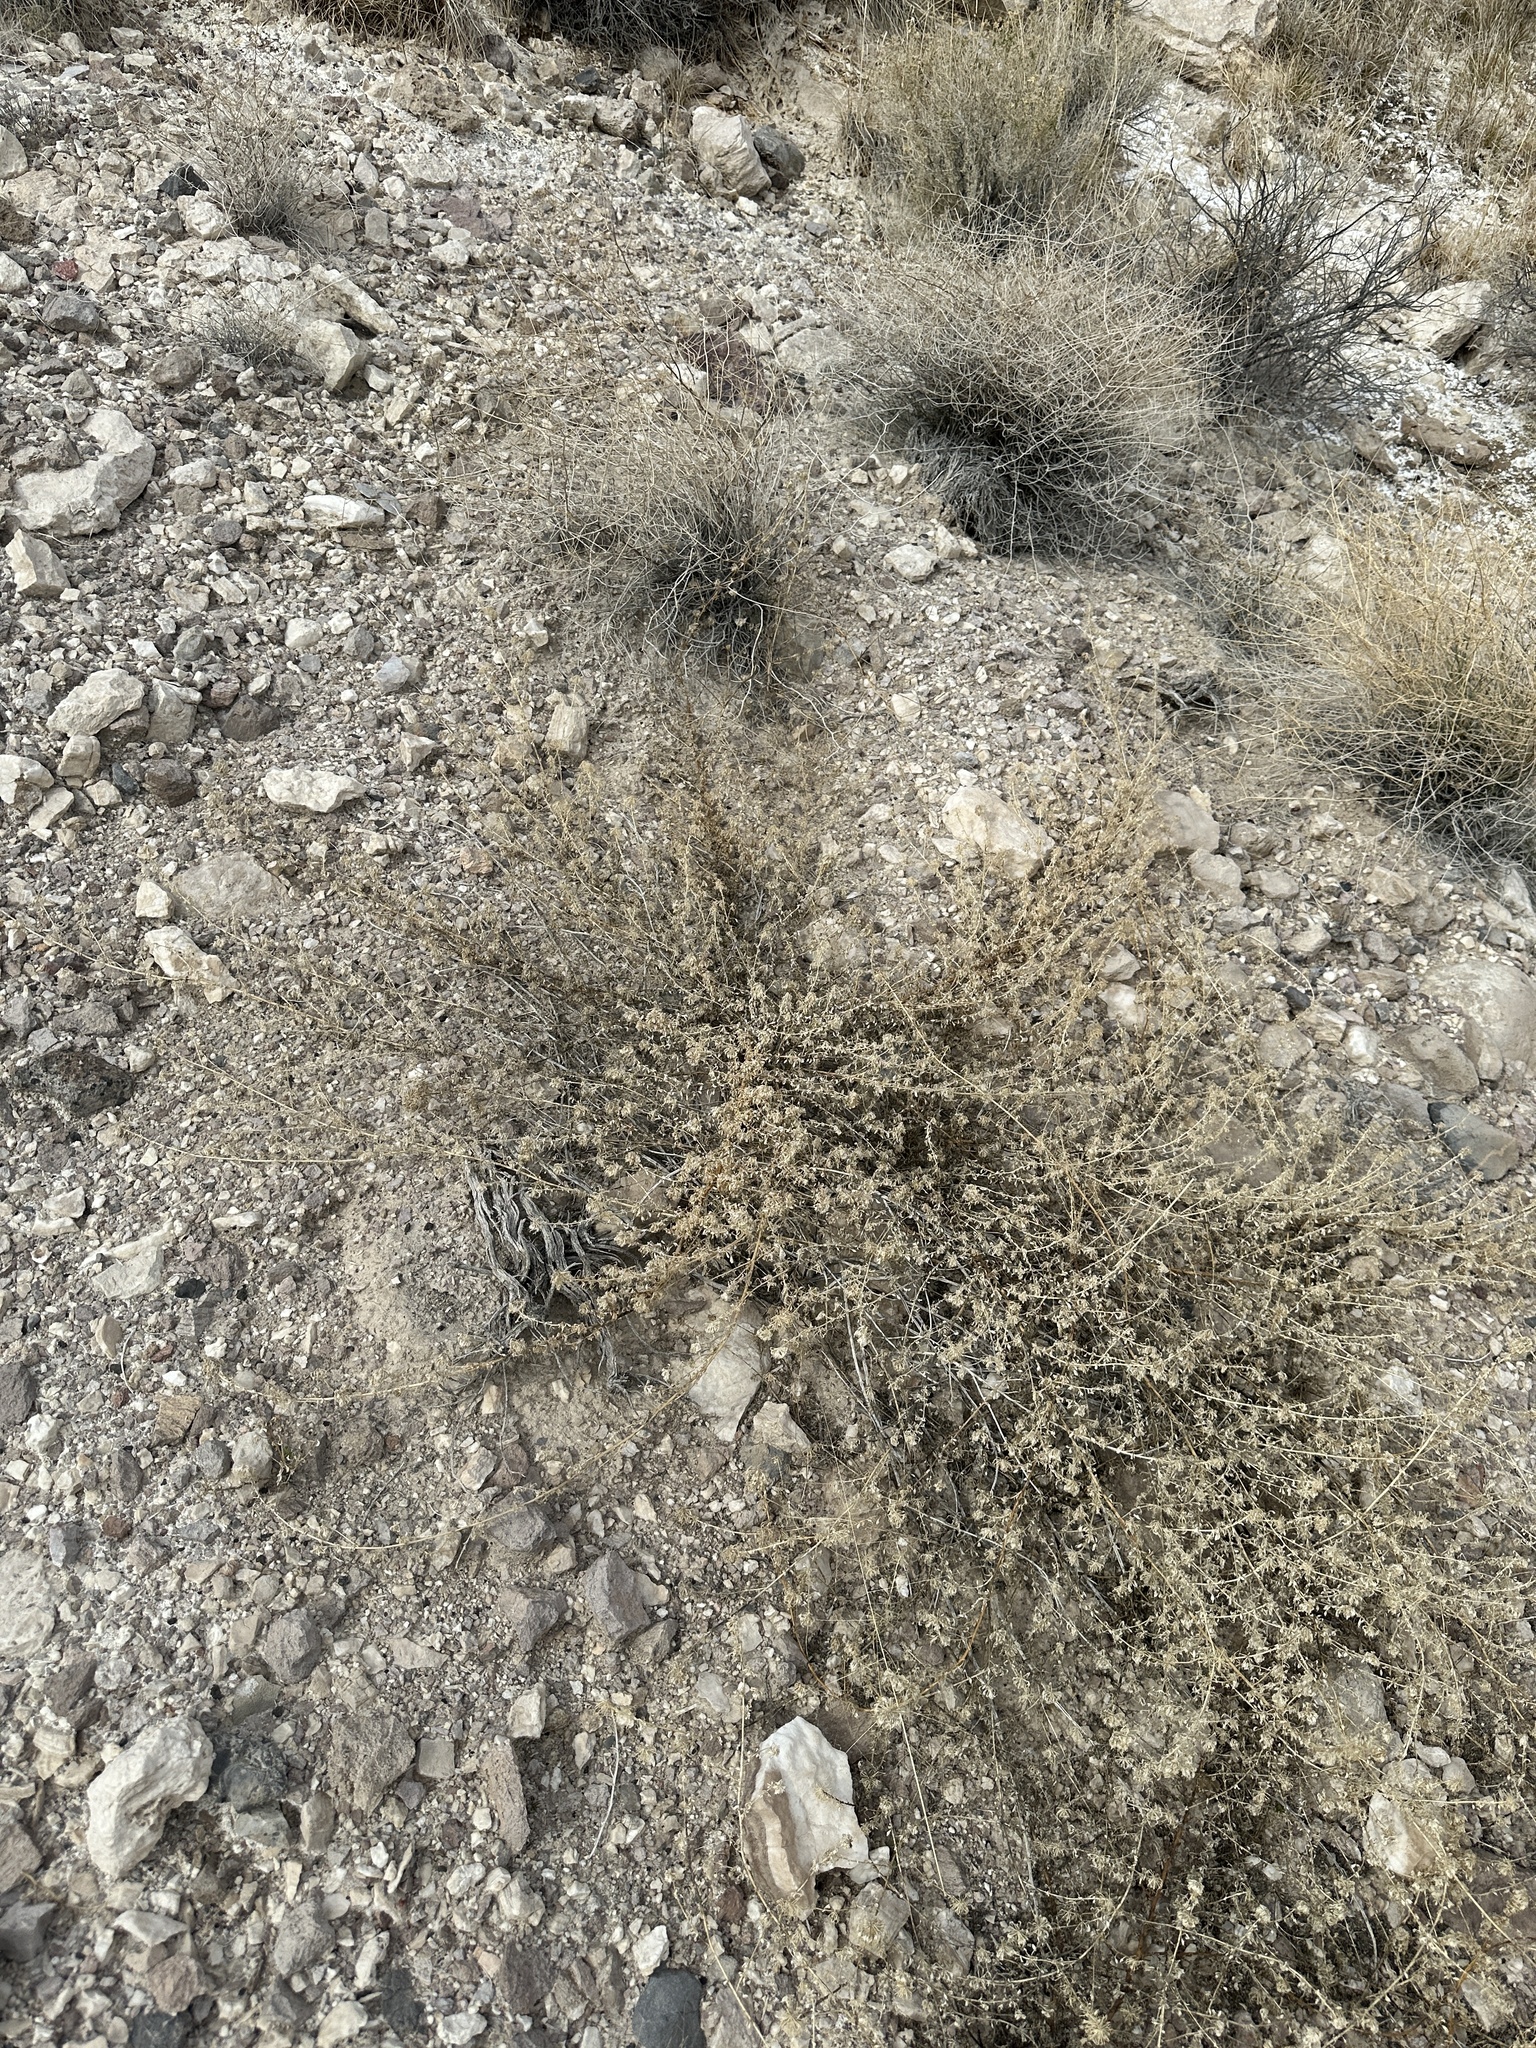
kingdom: Plantae
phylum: Tracheophyta
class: Magnoliopsida
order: Brassicales
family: Cleomaceae
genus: Cleomella
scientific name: Cleomella obtusifolia
